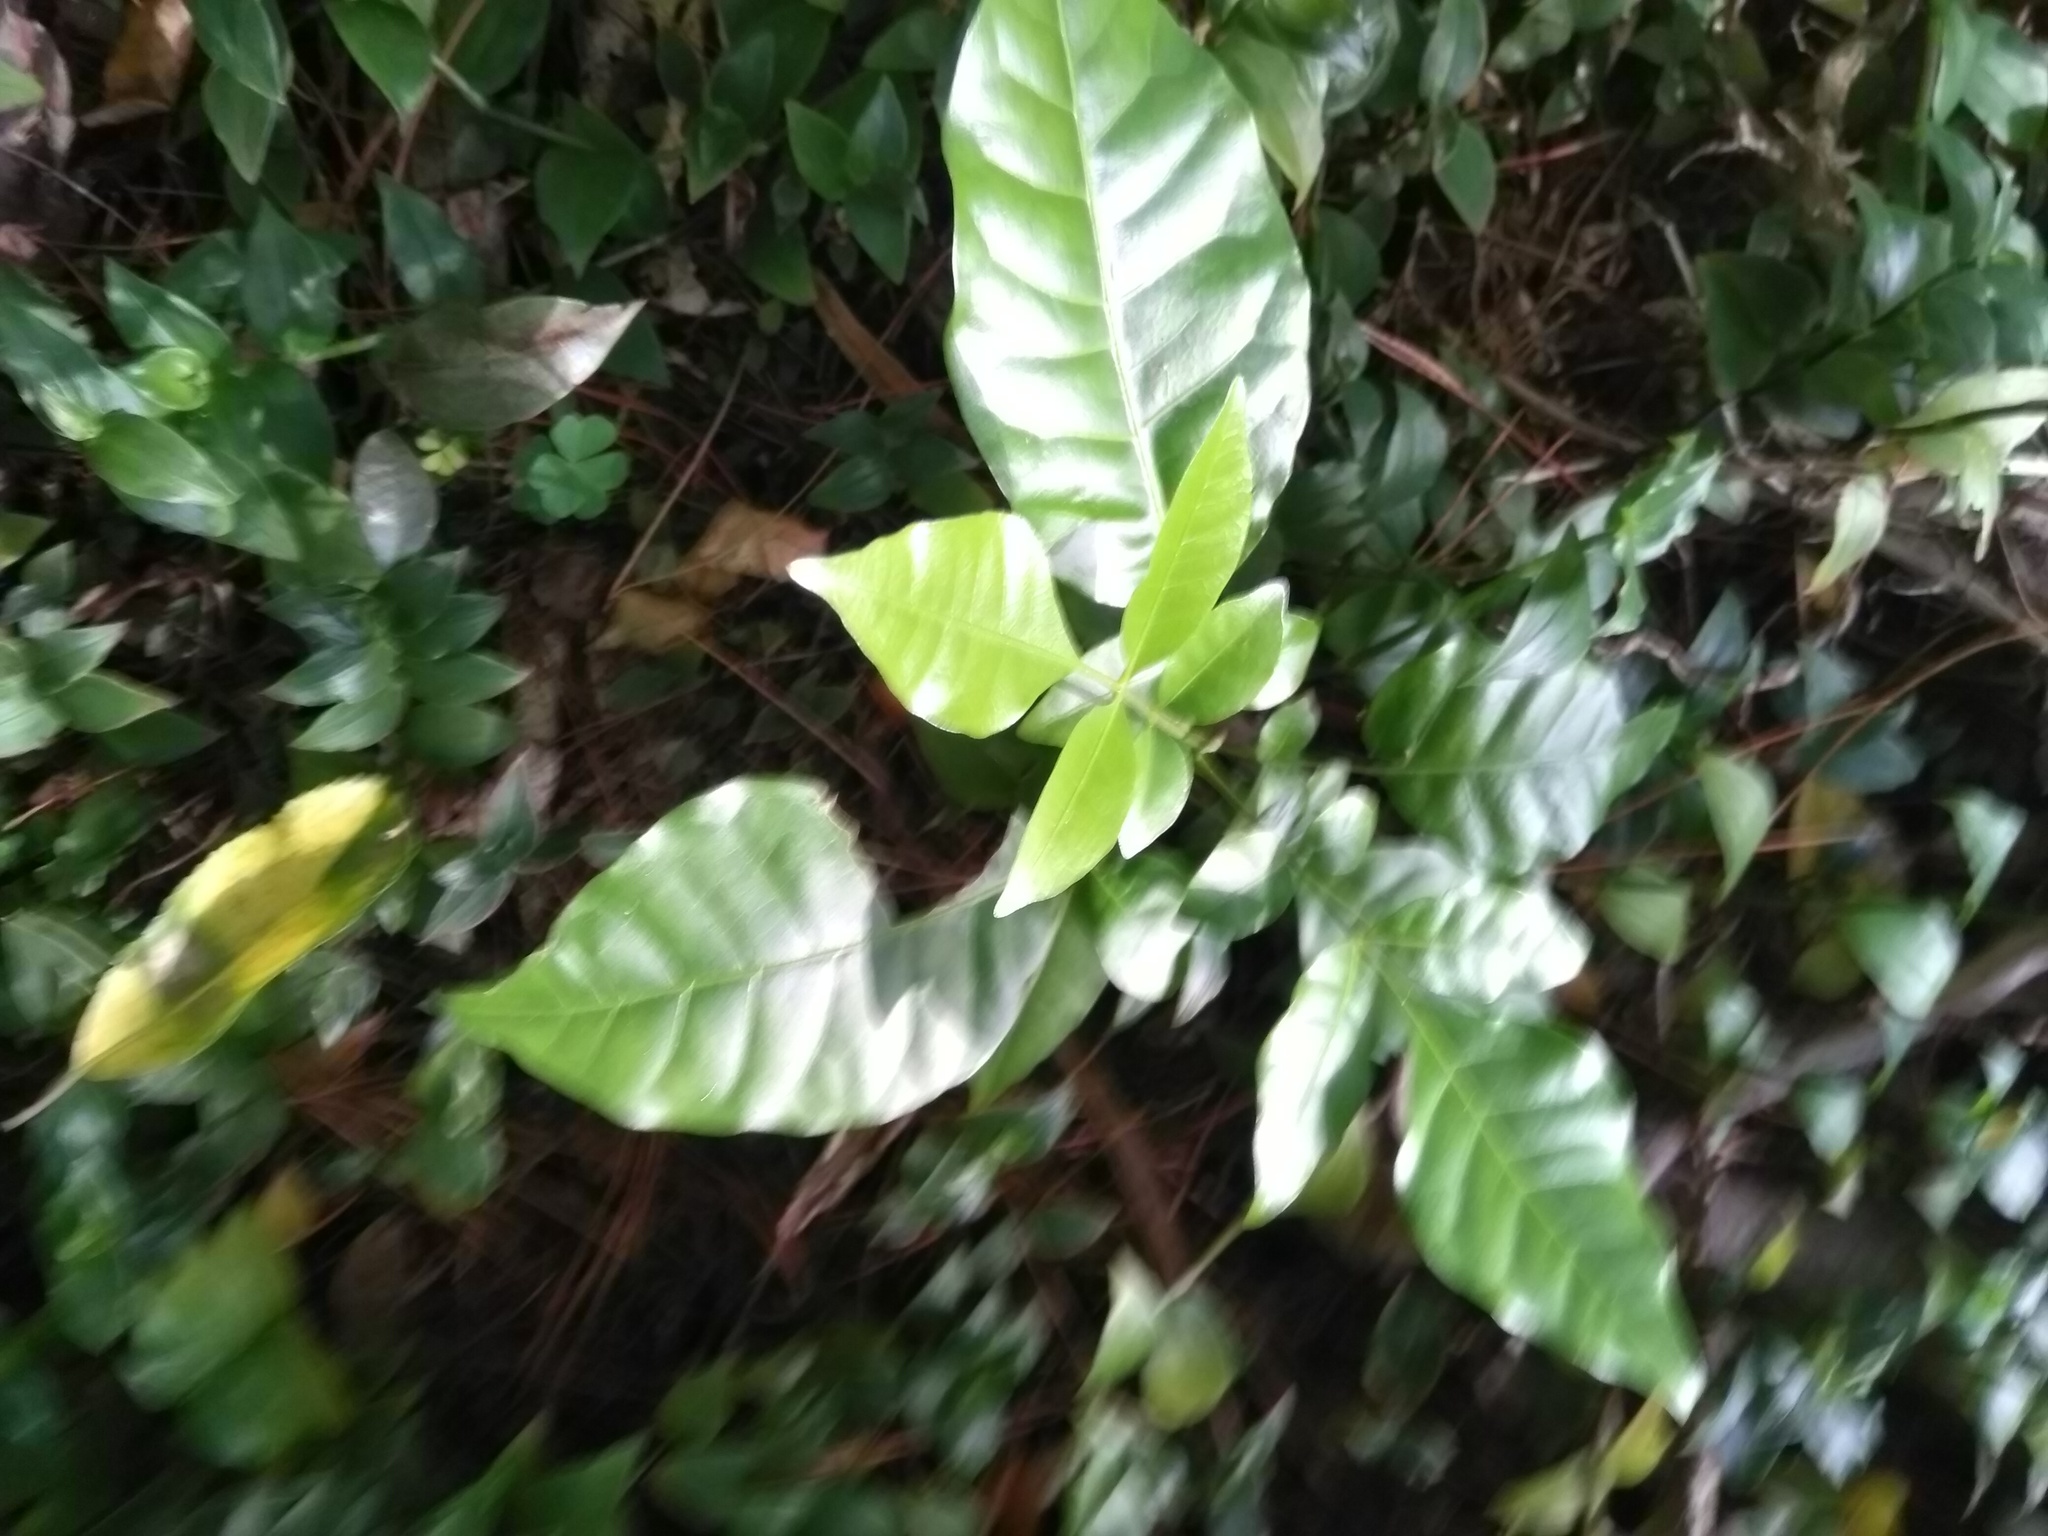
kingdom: Plantae
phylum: Tracheophyta
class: Magnoliopsida
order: Sapindales
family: Meliaceae
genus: Didymocheton
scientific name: Didymocheton spectabilis
